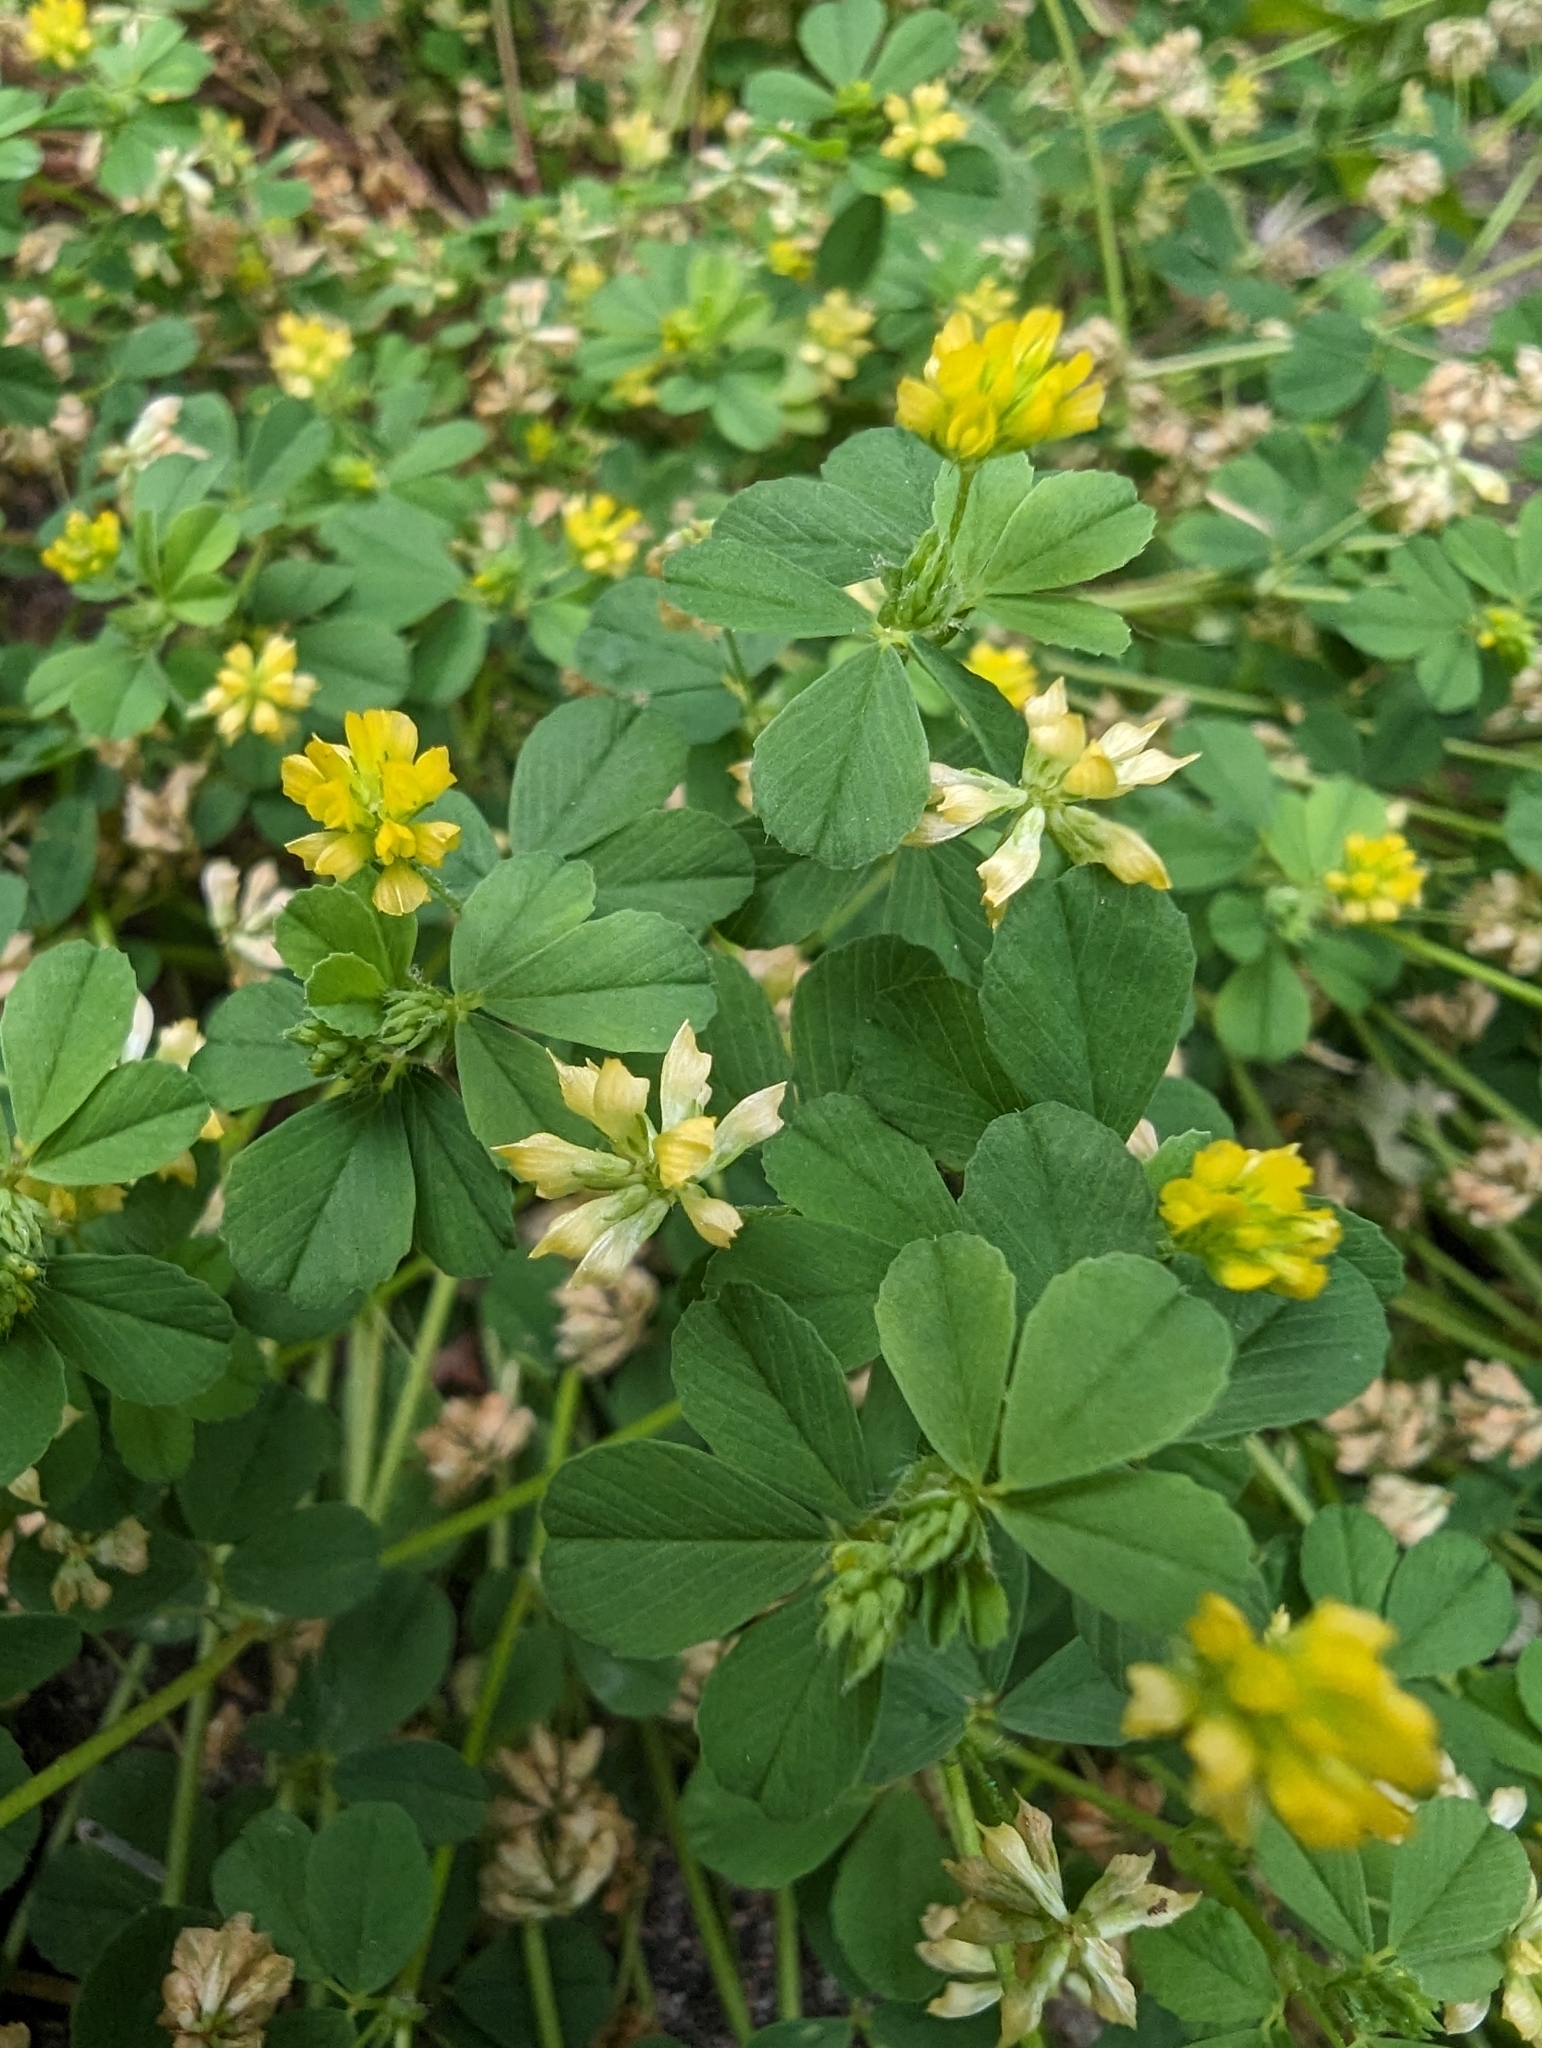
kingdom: Plantae
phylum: Tracheophyta
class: Magnoliopsida
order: Fabales
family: Fabaceae
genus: Trifolium
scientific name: Trifolium dubium
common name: Suckling clover
